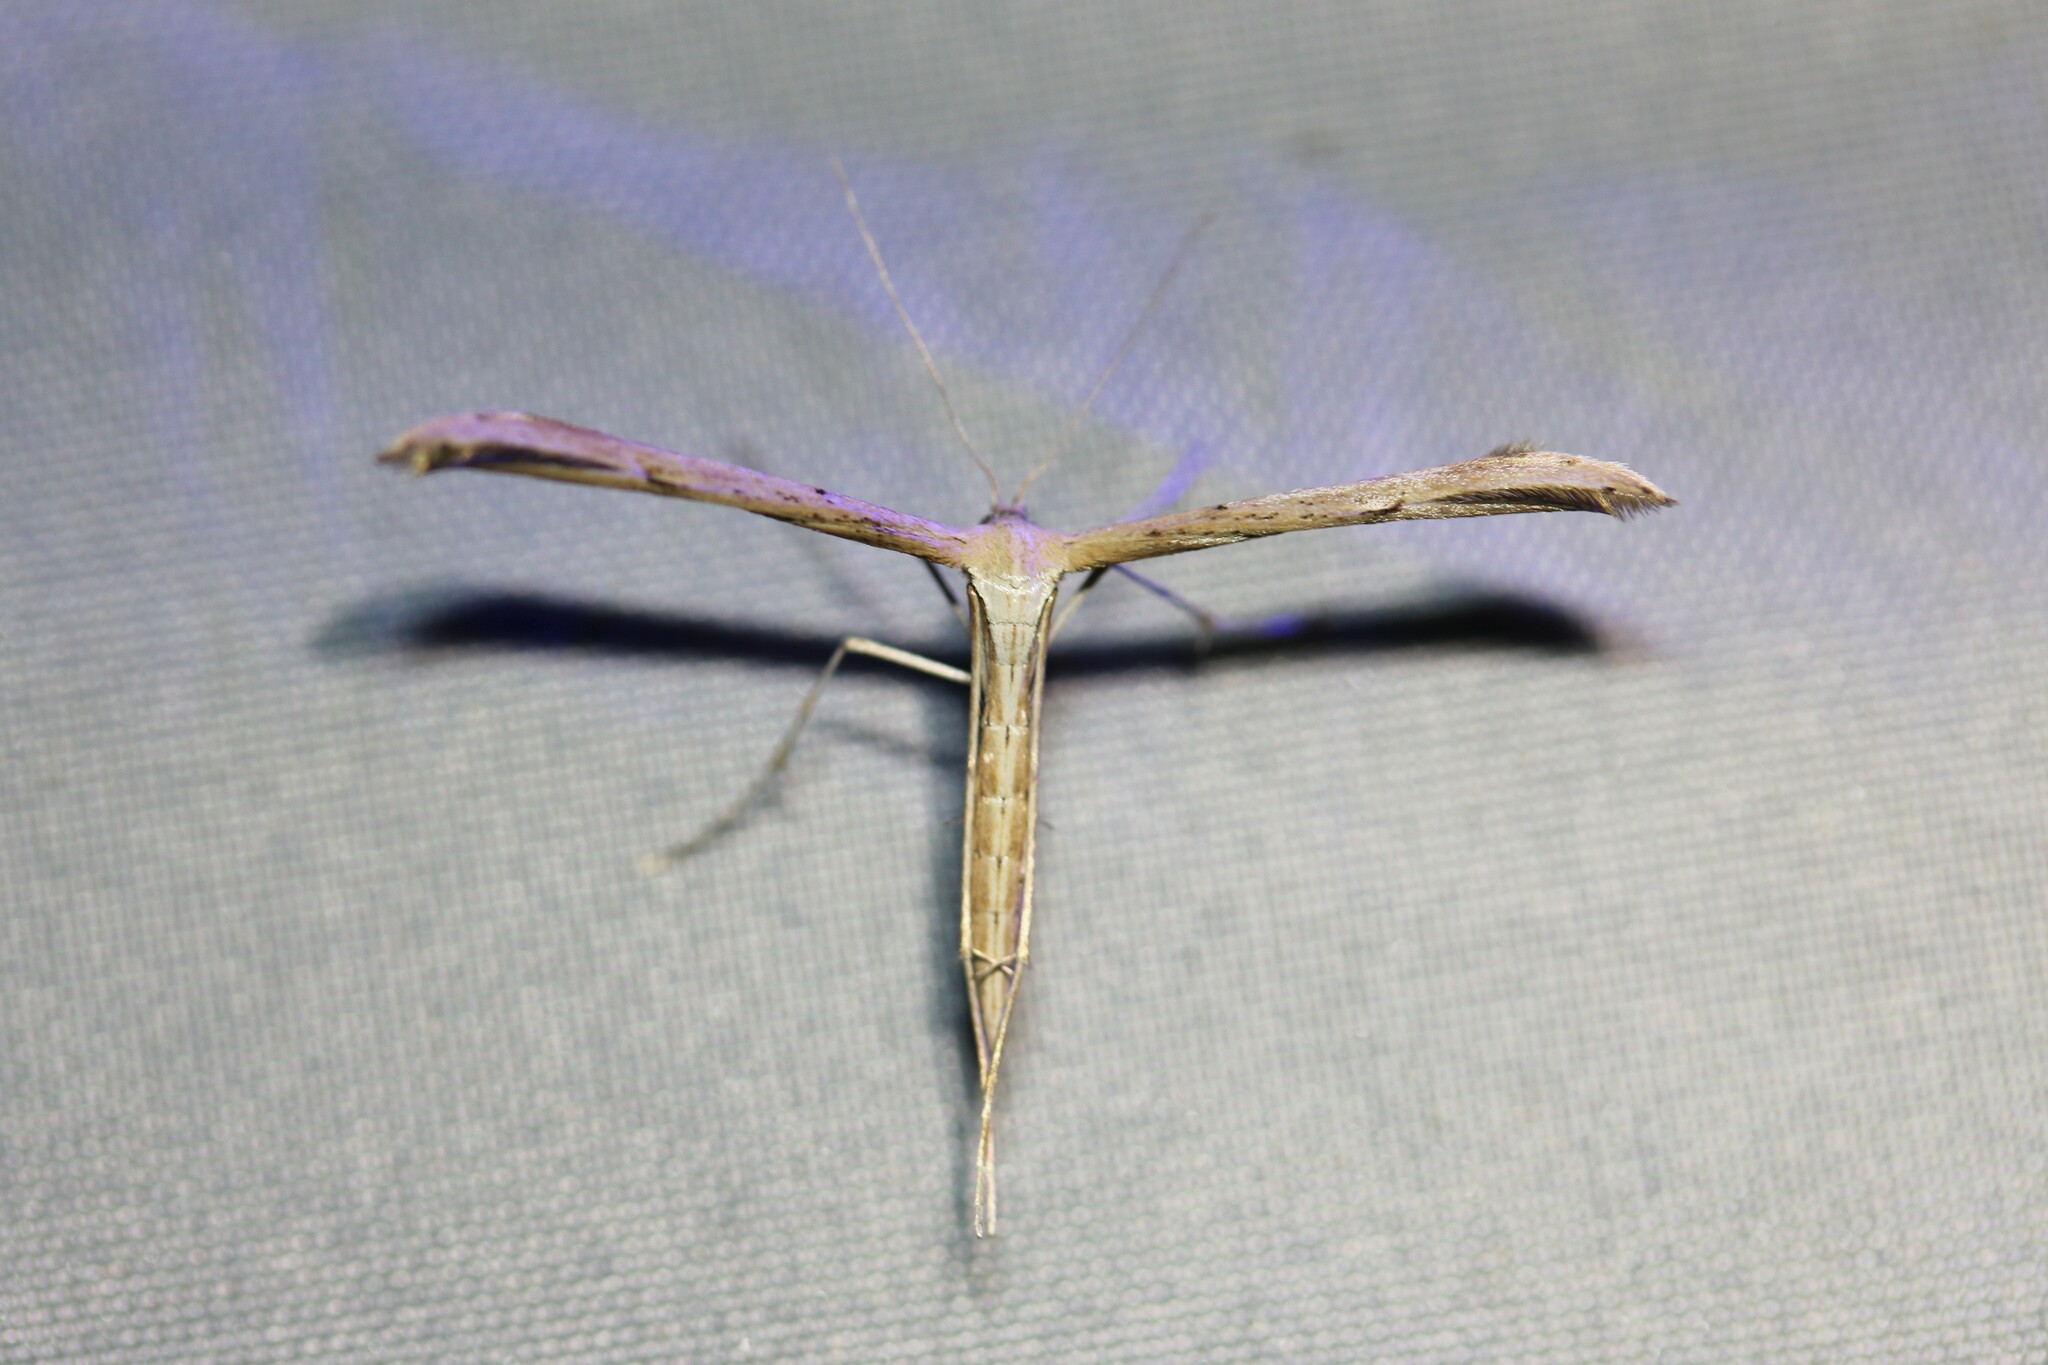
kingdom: Animalia
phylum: Arthropoda
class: Insecta
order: Lepidoptera
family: Pterophoridae
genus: Emmelina
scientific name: Emmelina monodactyla
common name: Common plume
